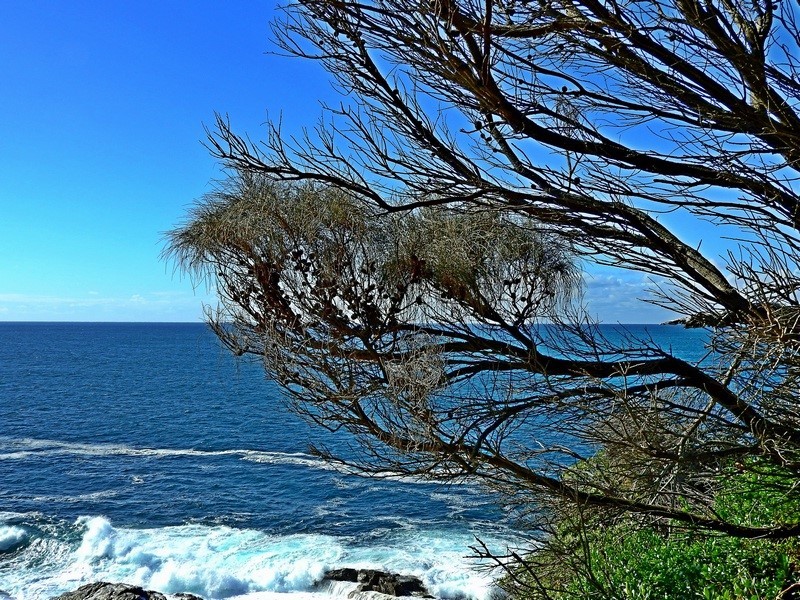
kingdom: Plantae
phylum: Tracheophyta
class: Magnoliopsida
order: Fagales
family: Casuarinaceae
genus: Allocasuarina
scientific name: Allocasuarina verticillata
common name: Drooping she-oak
